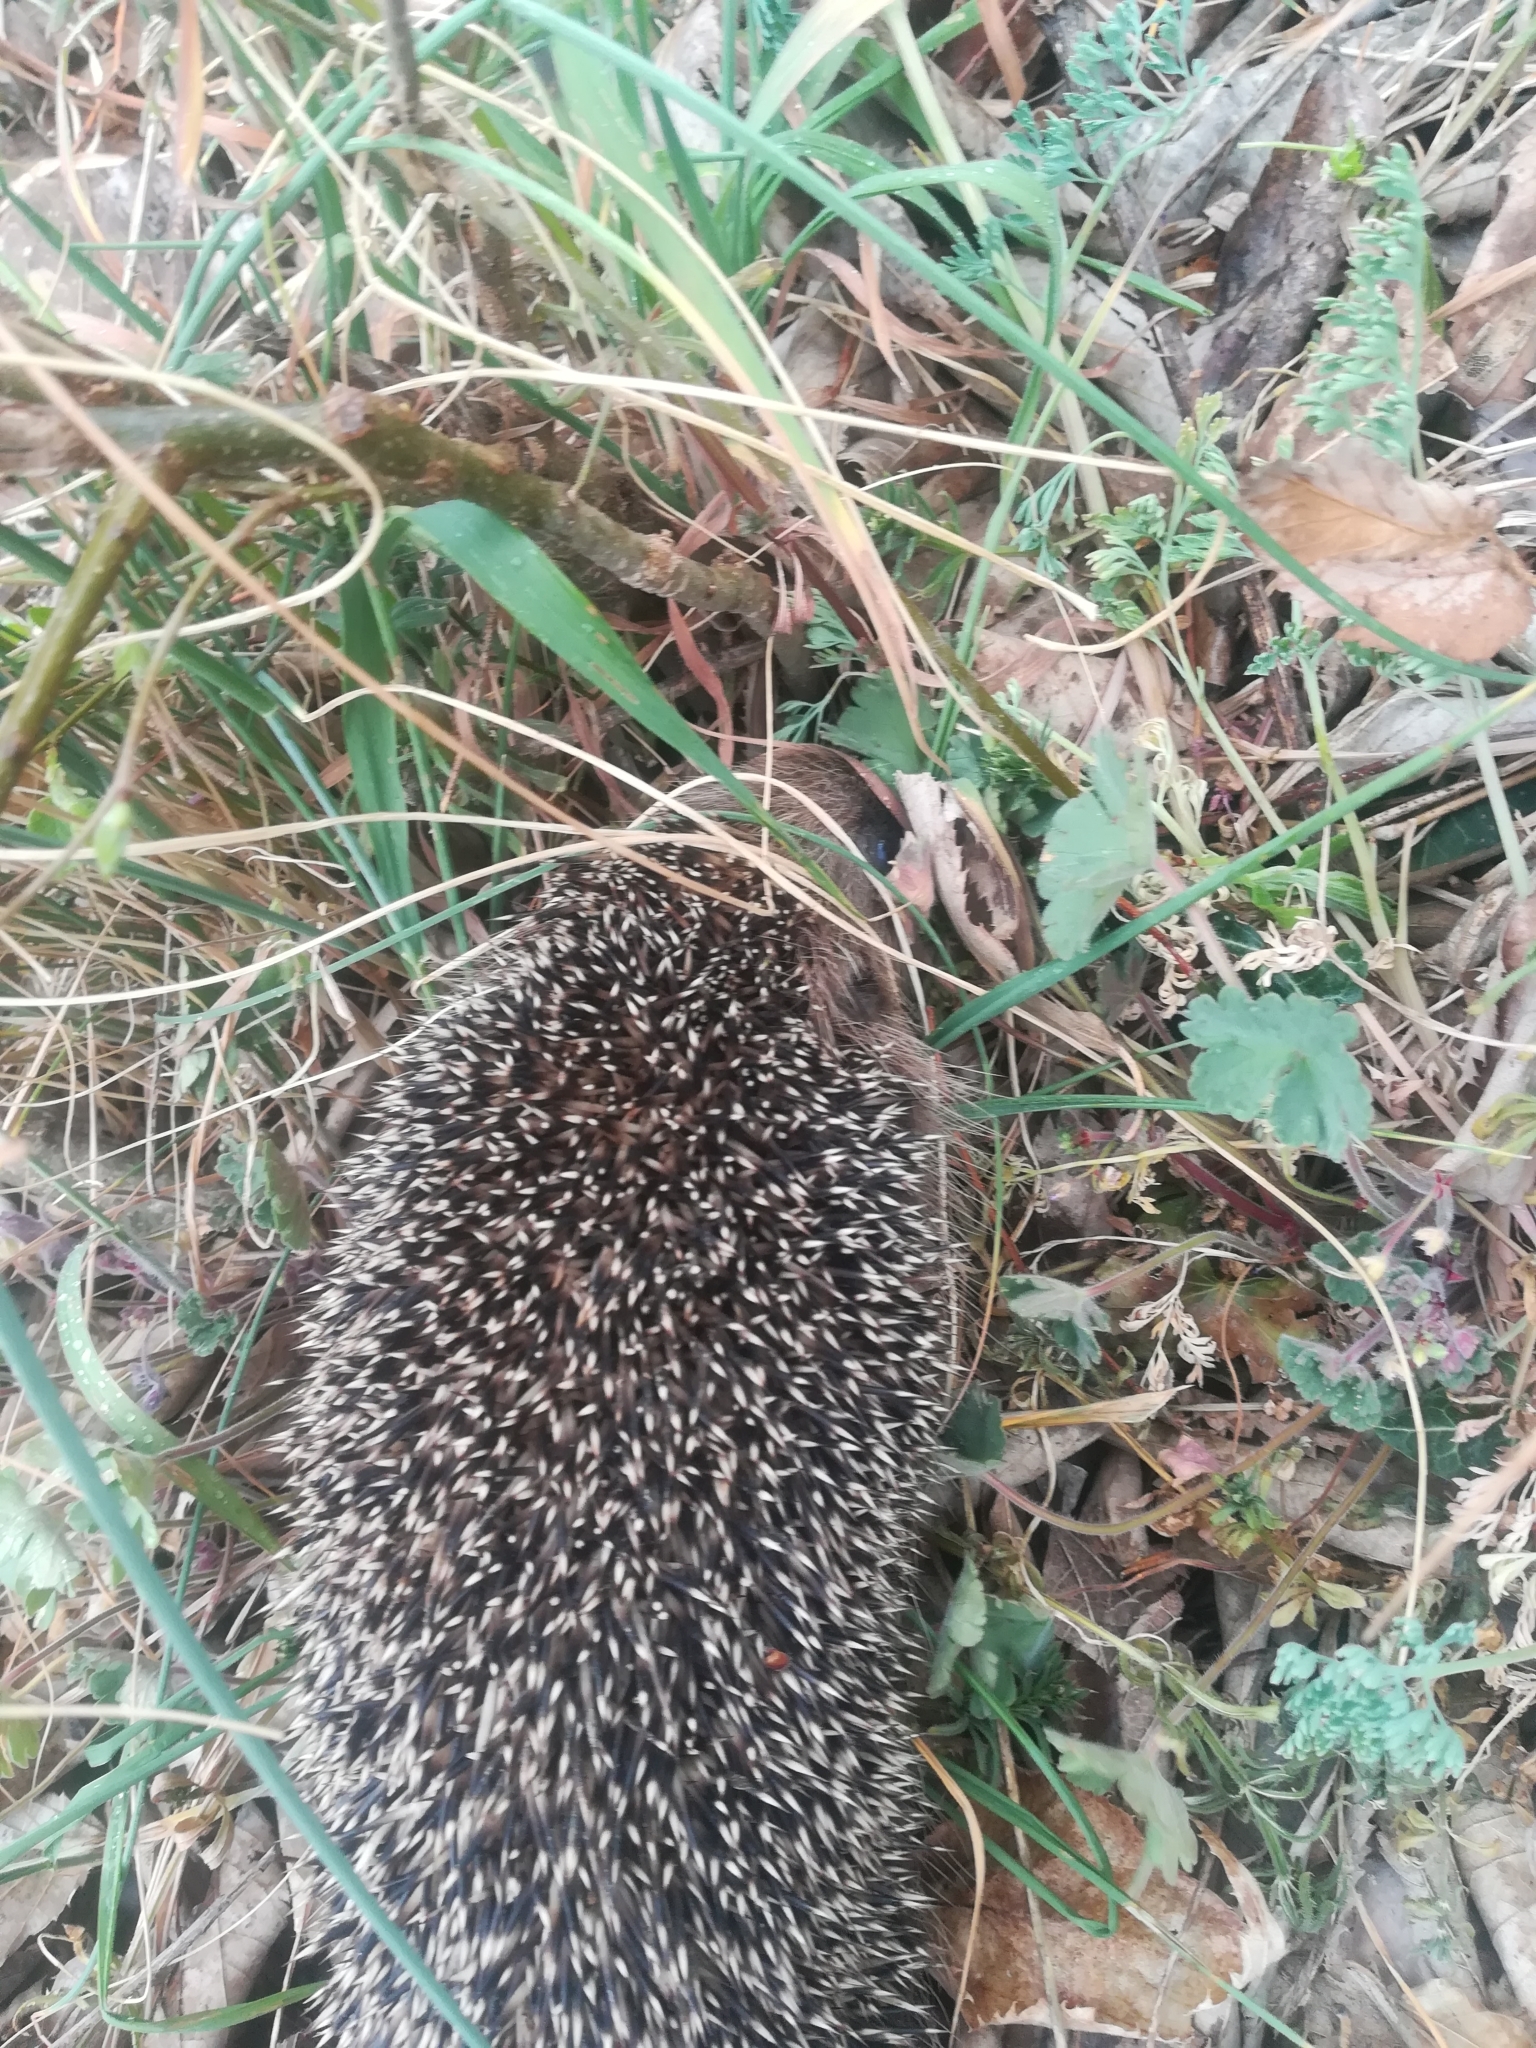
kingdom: Animalia
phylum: Chordata
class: Mammalia
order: Erinaceomorpha
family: Erinaceidae
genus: Erinaceus
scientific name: Erinaceus europaeus
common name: West european hedgehog
